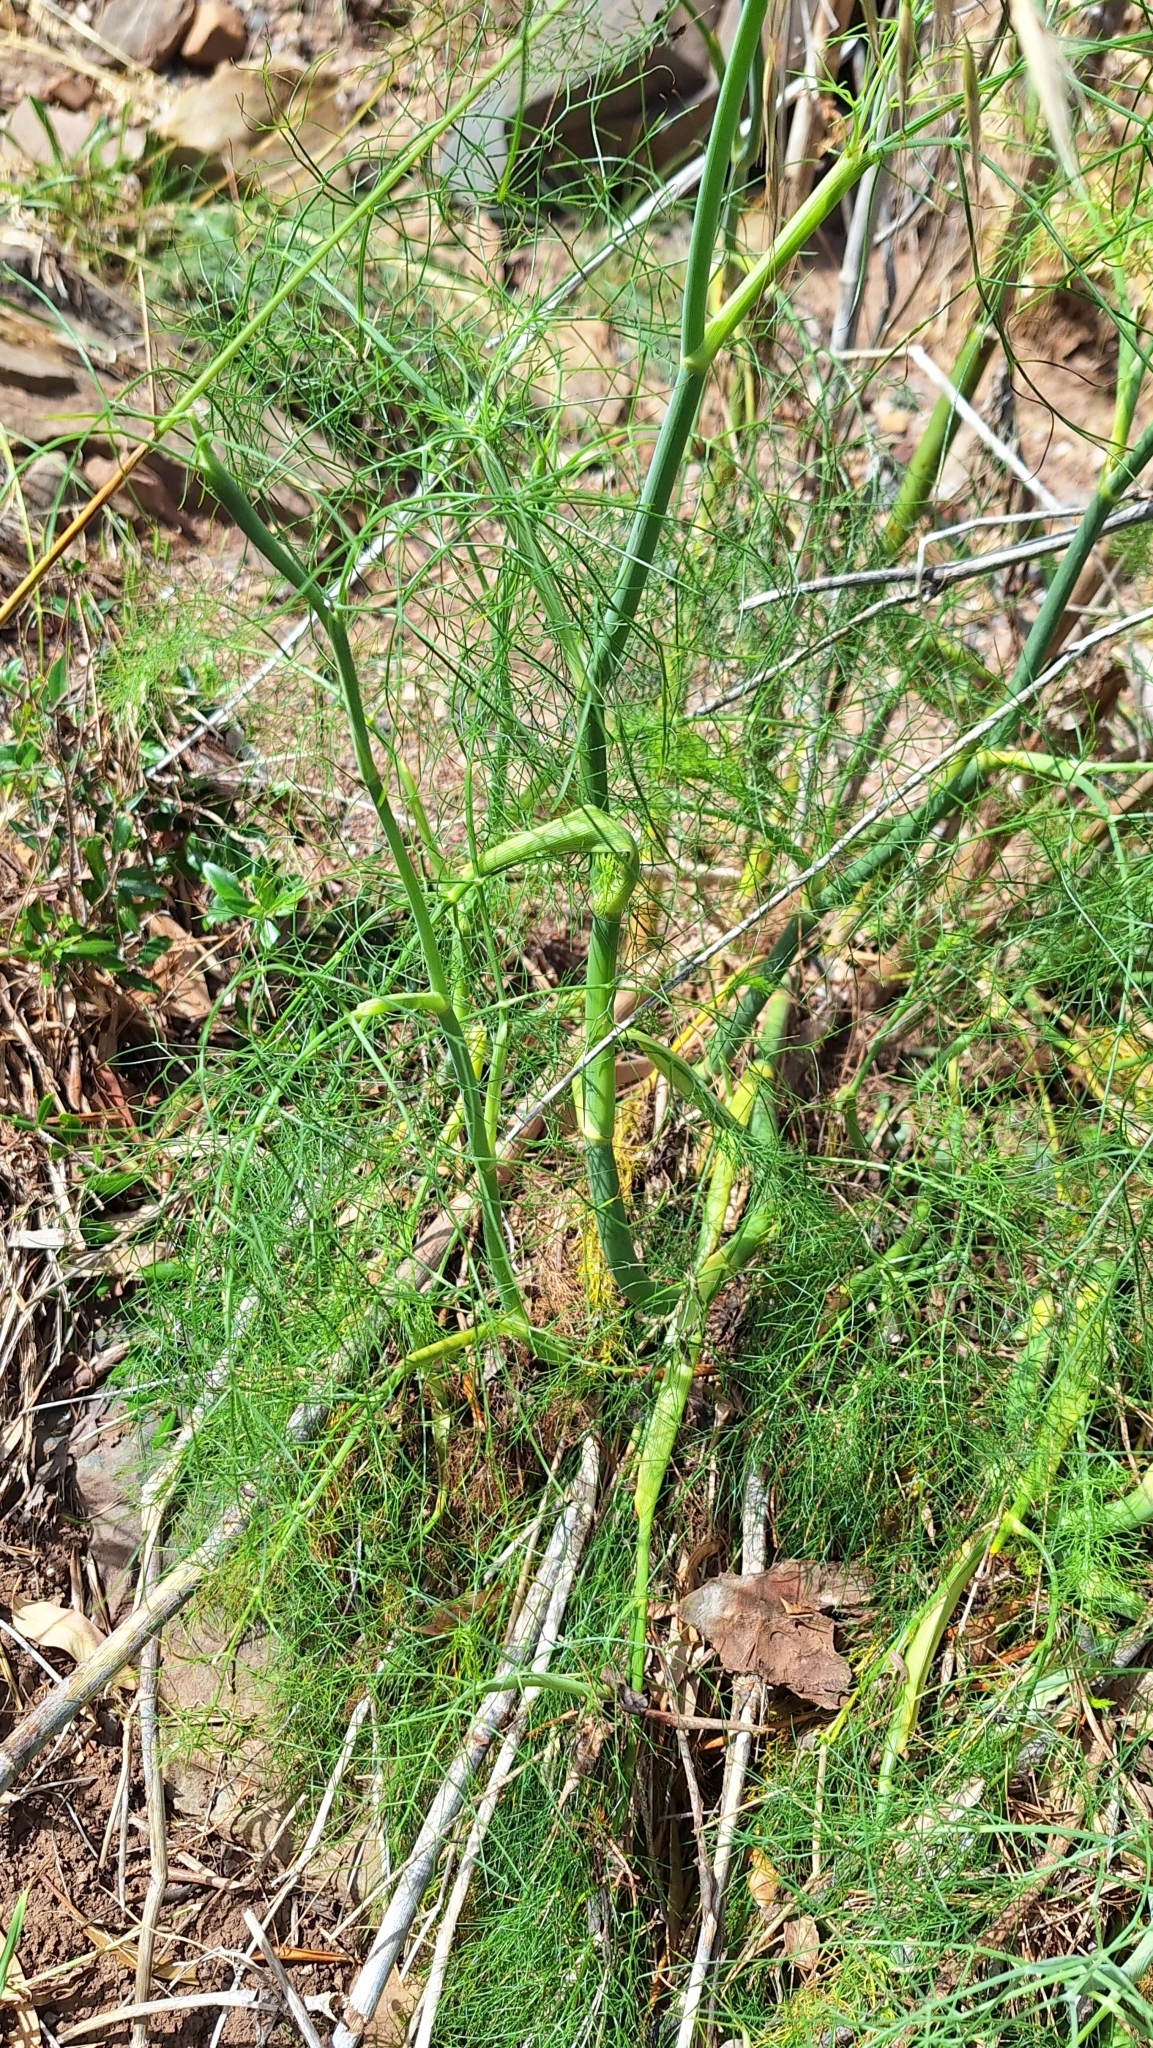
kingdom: Plantae
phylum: Tracheophyta
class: Magnoliopsida
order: Apiales
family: Apiaceae
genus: Foeniculum
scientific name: Foeniculum vulgare
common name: Fennel
